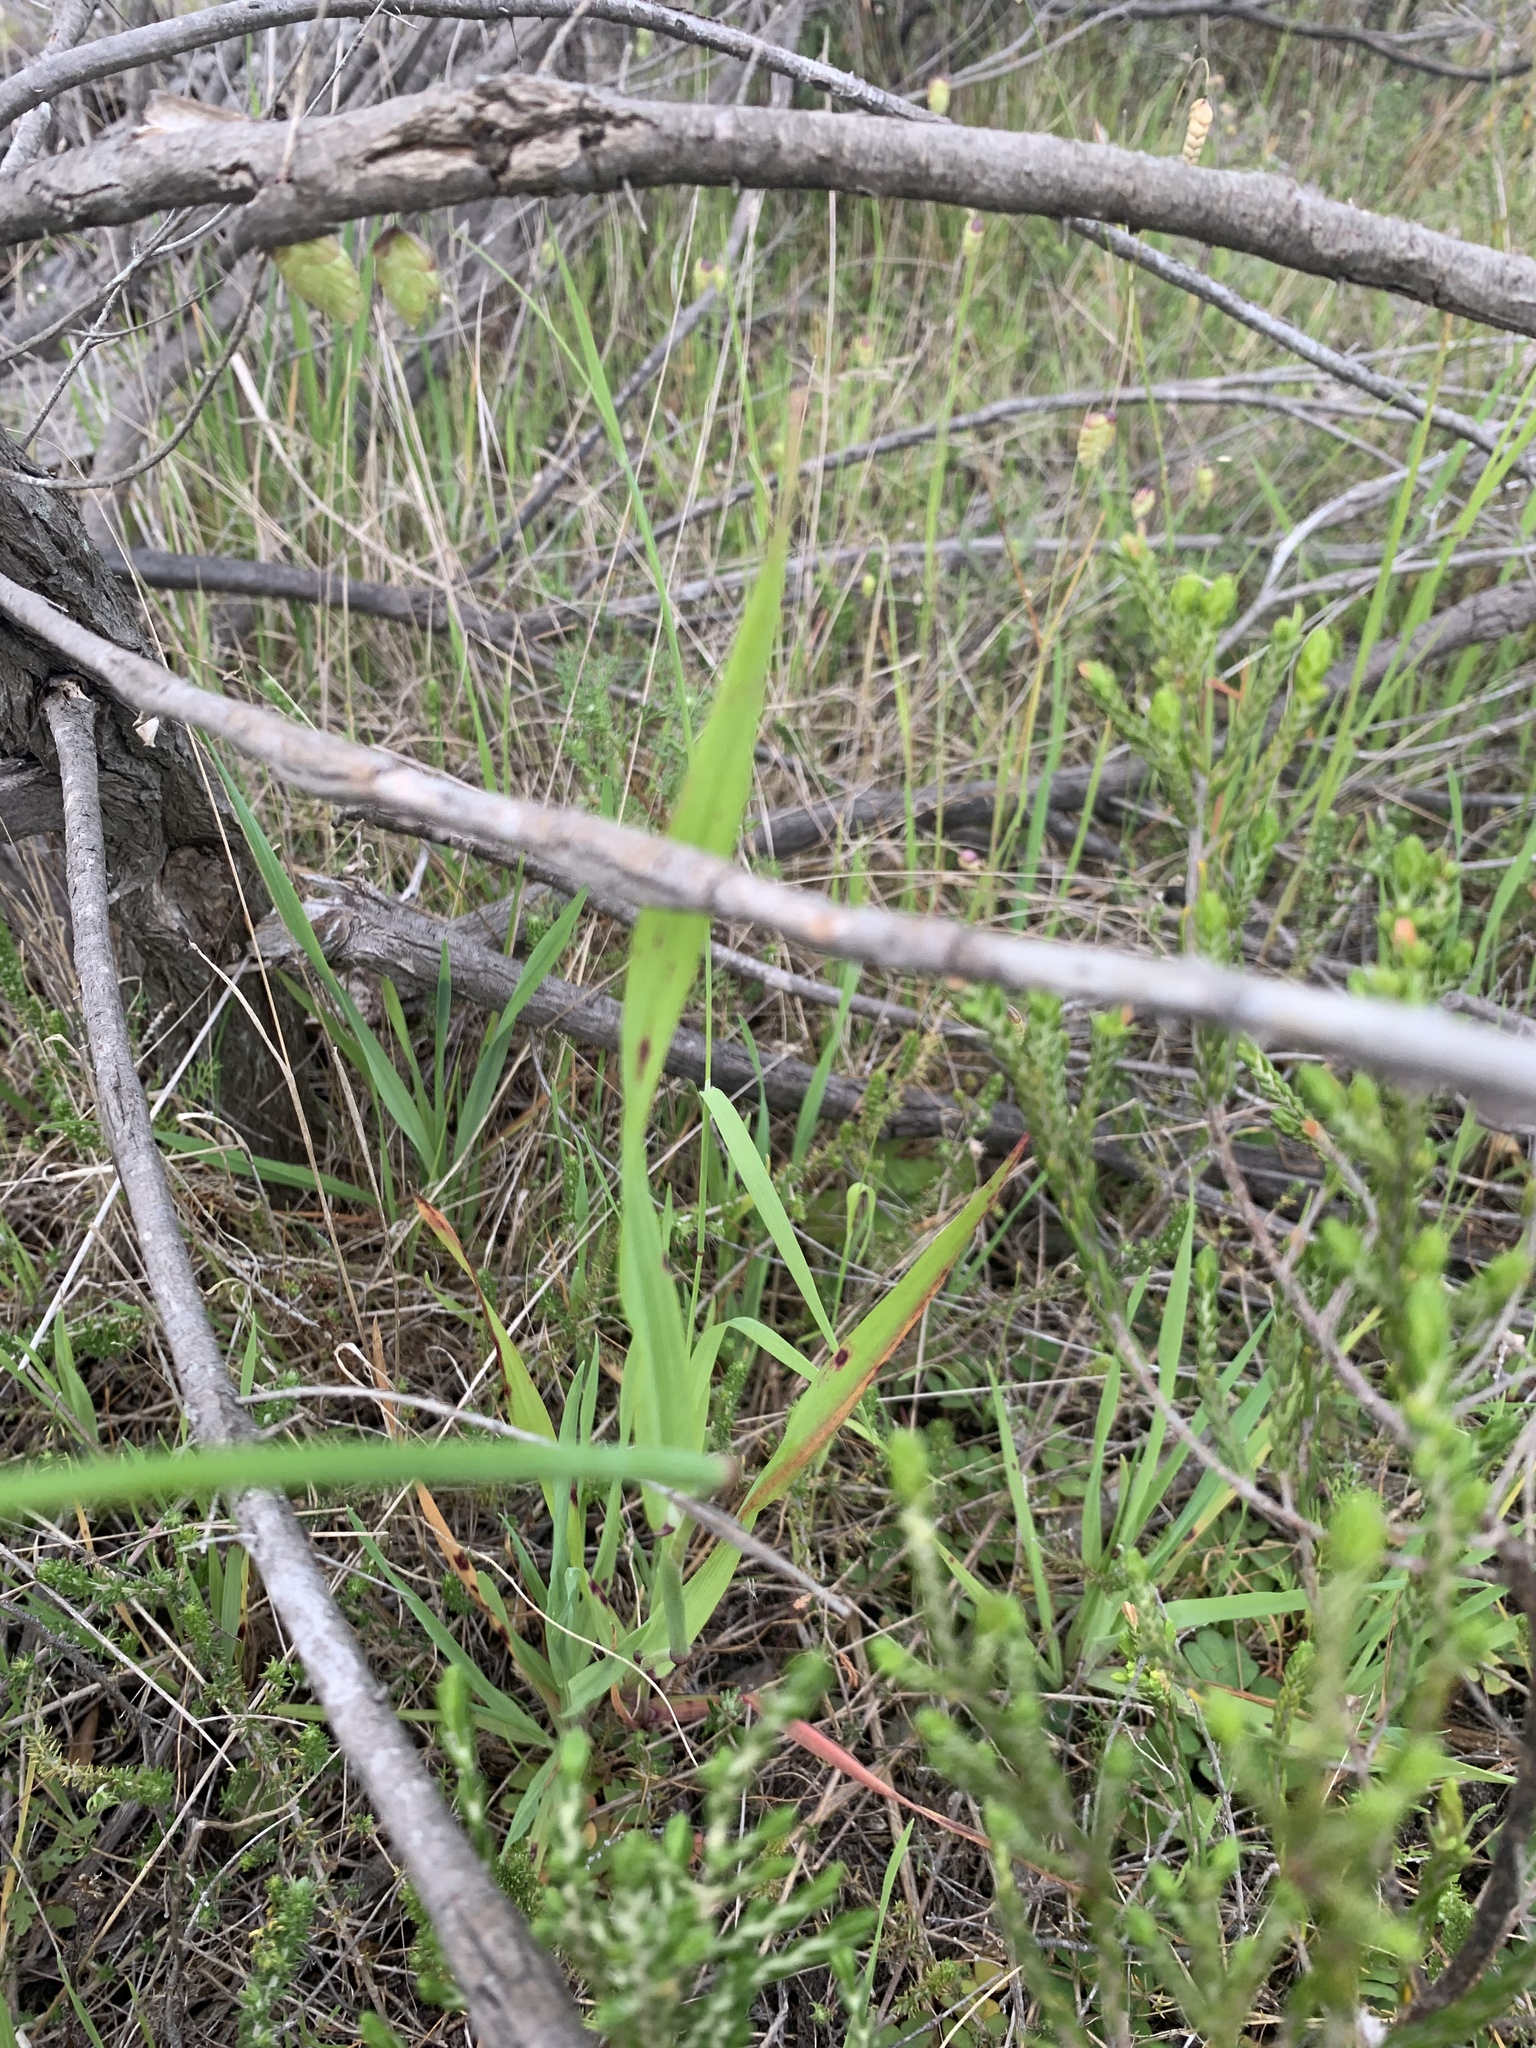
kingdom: Plantae
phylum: Tracheophyta
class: Liliopsida
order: Poales
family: Poaceae
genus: Briza
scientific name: Briza maxima
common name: Big quakinggrass
